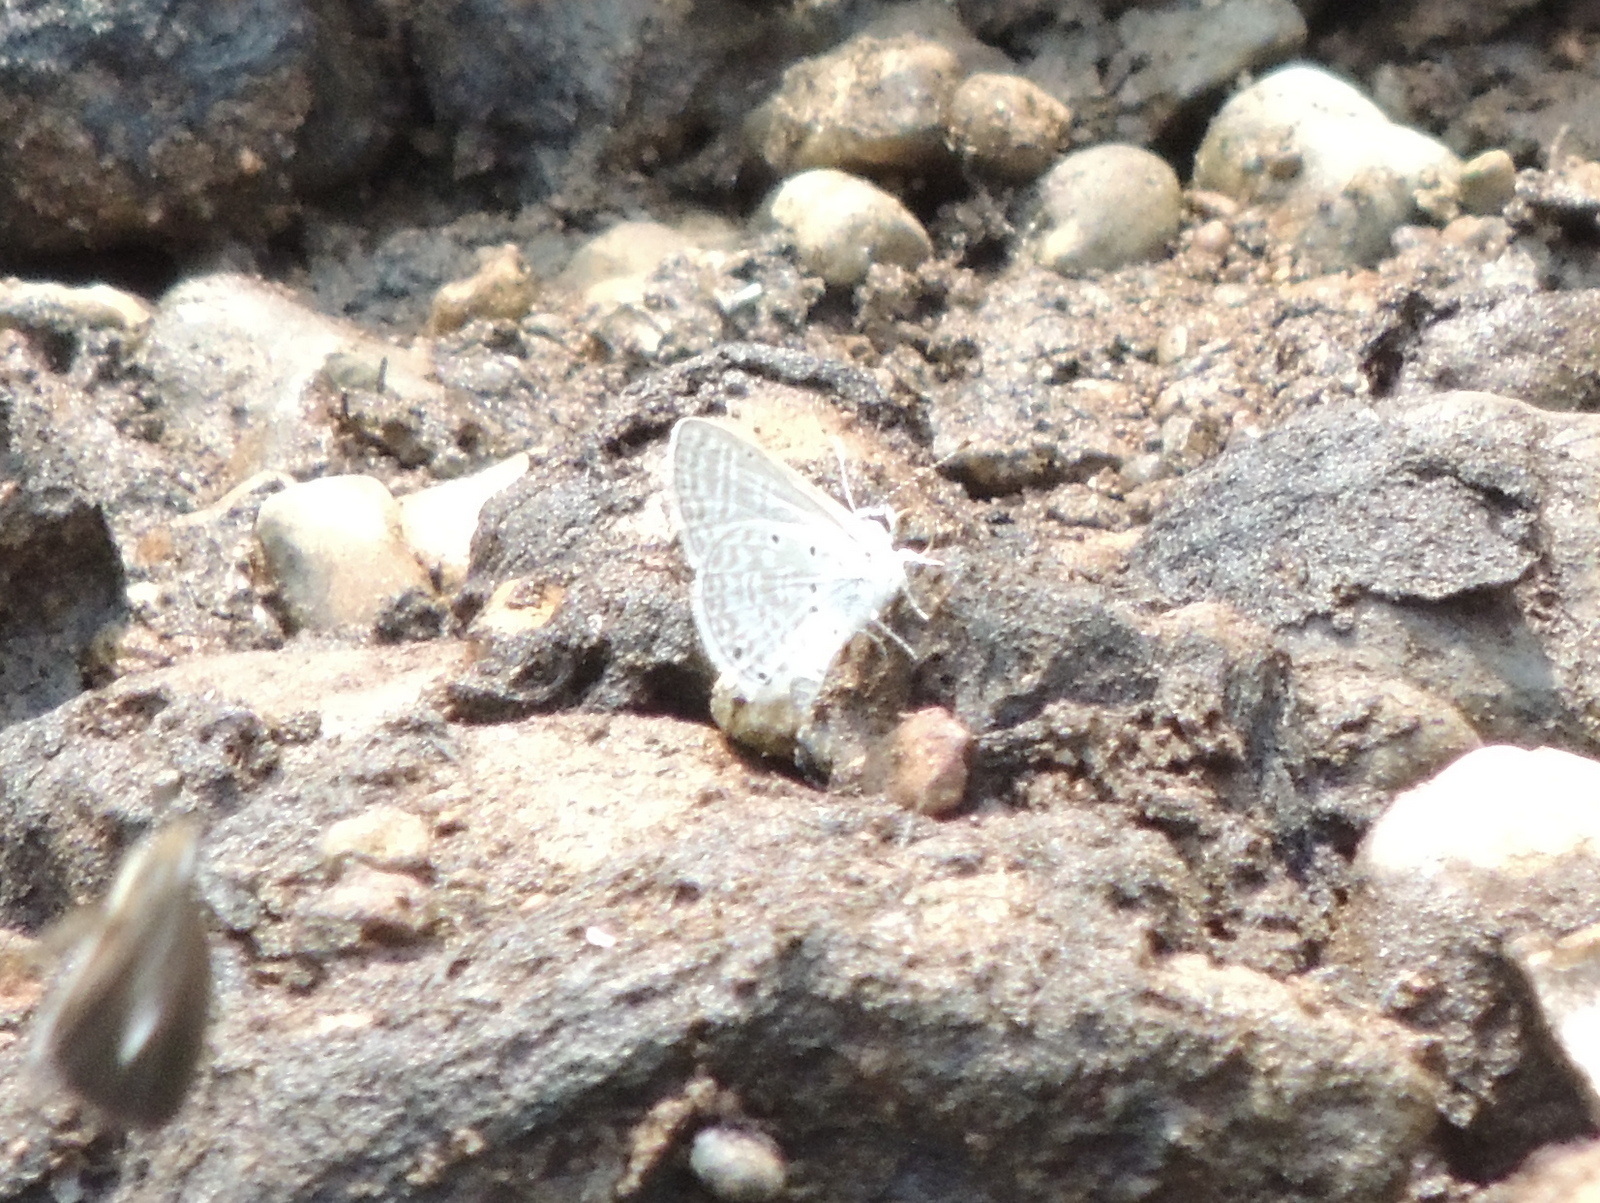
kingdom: Animalia
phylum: Arthropoda
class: Insecta
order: Lepidoptera
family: Lycaenidae
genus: Luthrodes
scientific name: Luthrodes pandava
